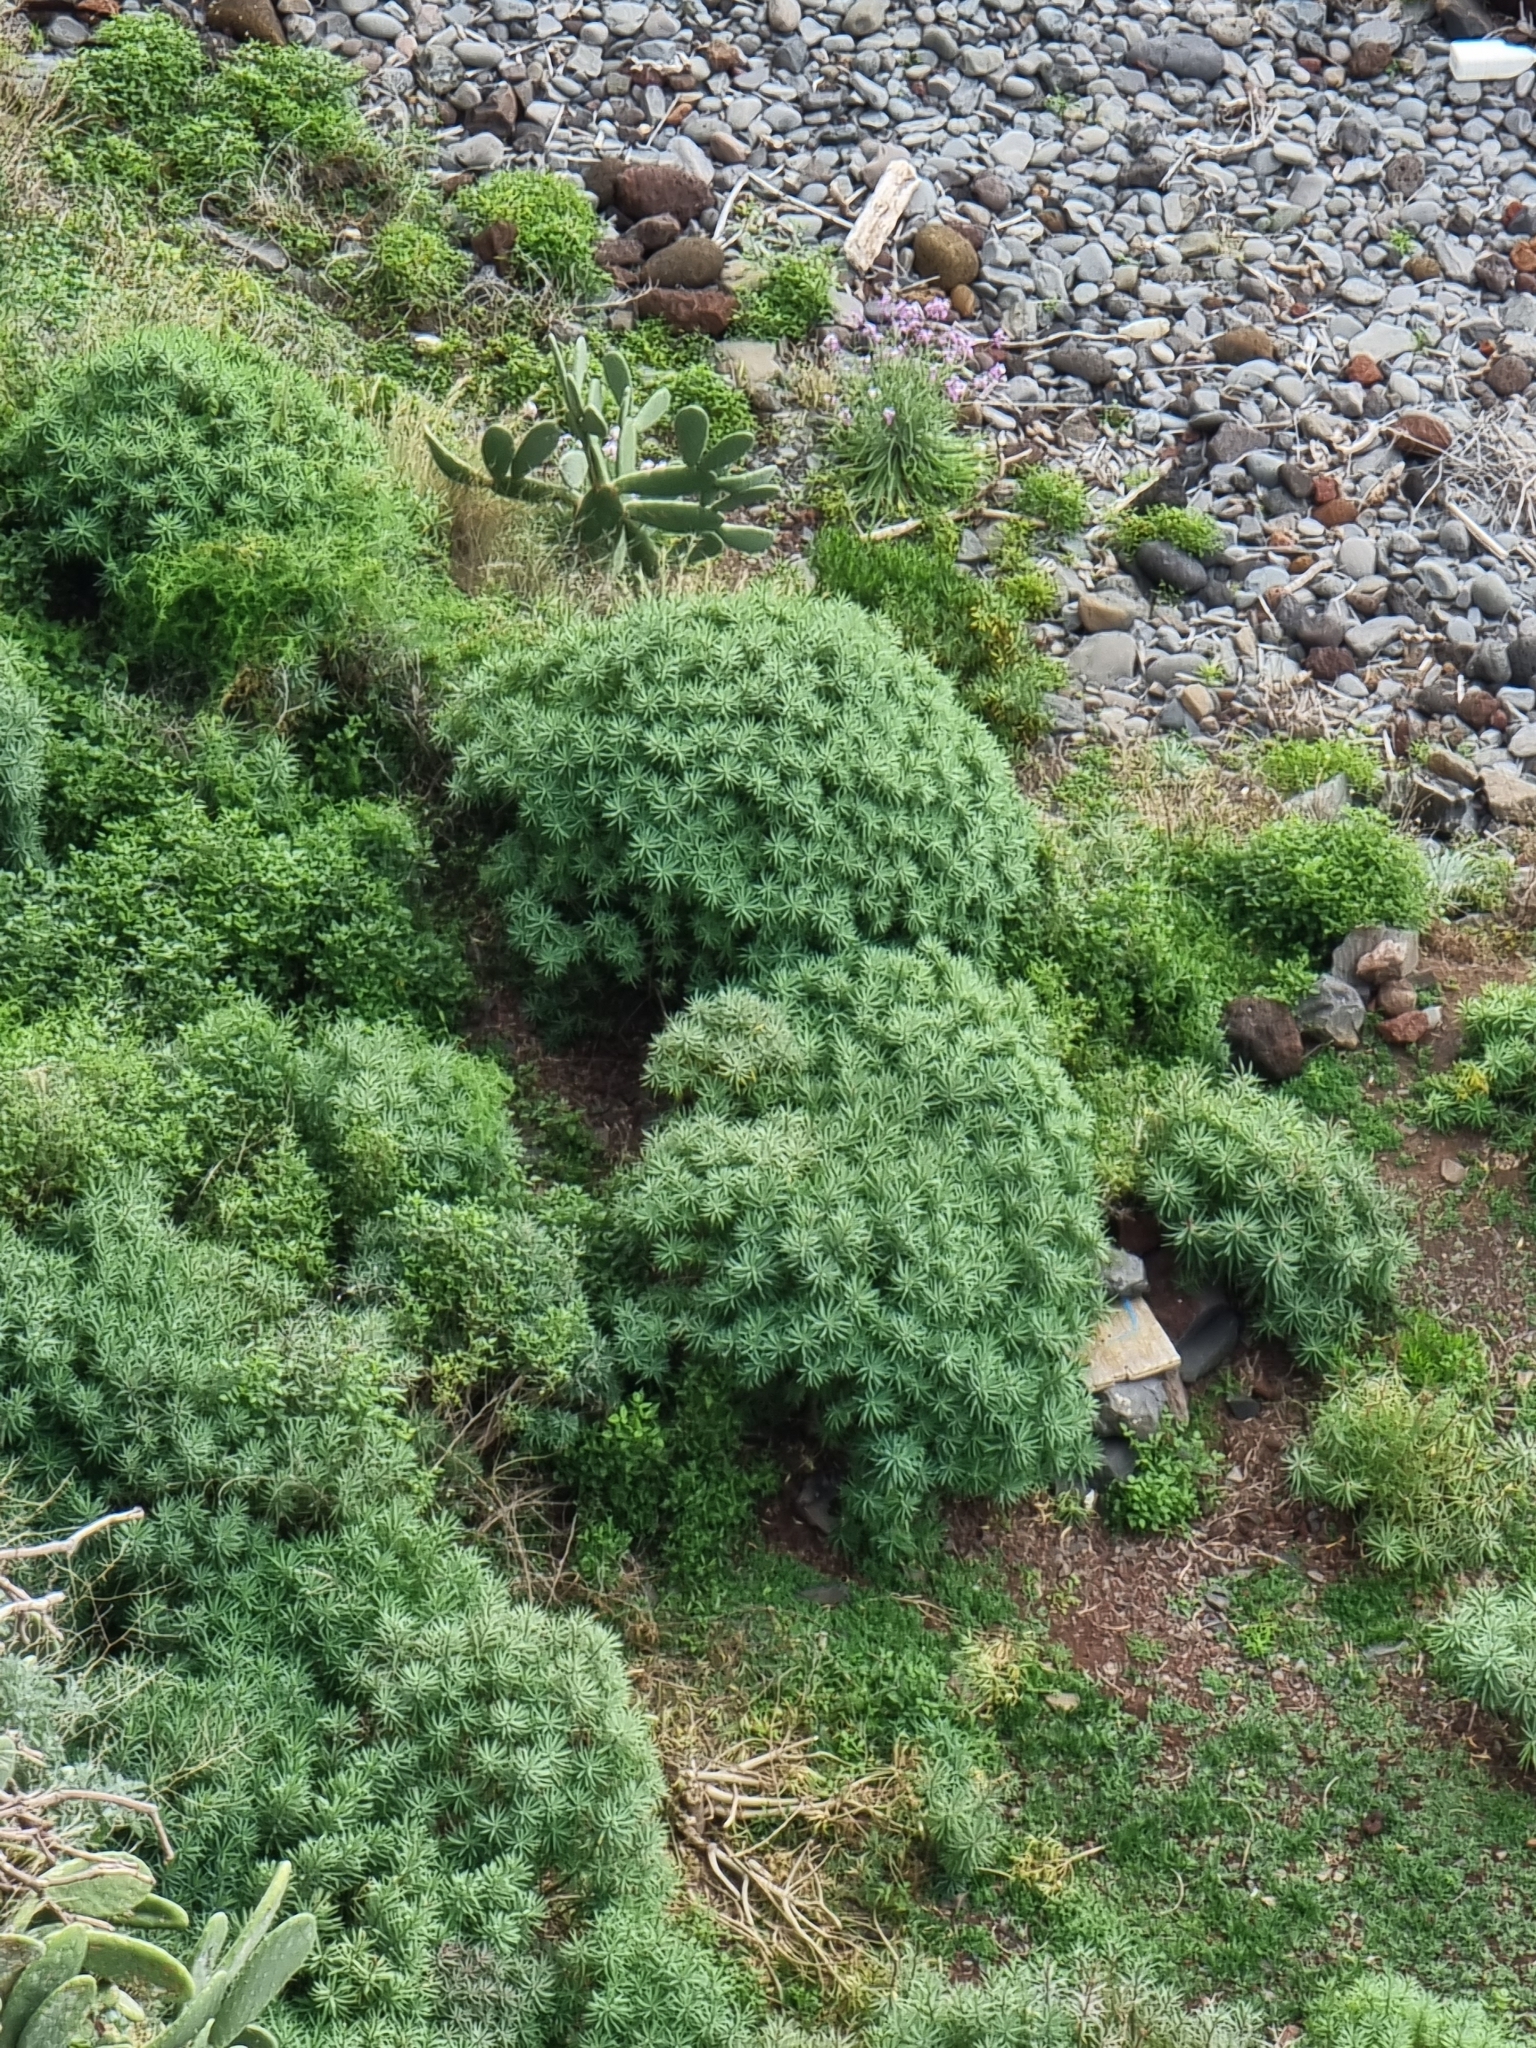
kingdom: Plantae
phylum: Tracheophyta
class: Magnoliopsida
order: Malpighiales
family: Euphorbiaceae
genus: Euphorbia
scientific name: Euphorbia piscatoria
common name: Fish-stunning spurge
